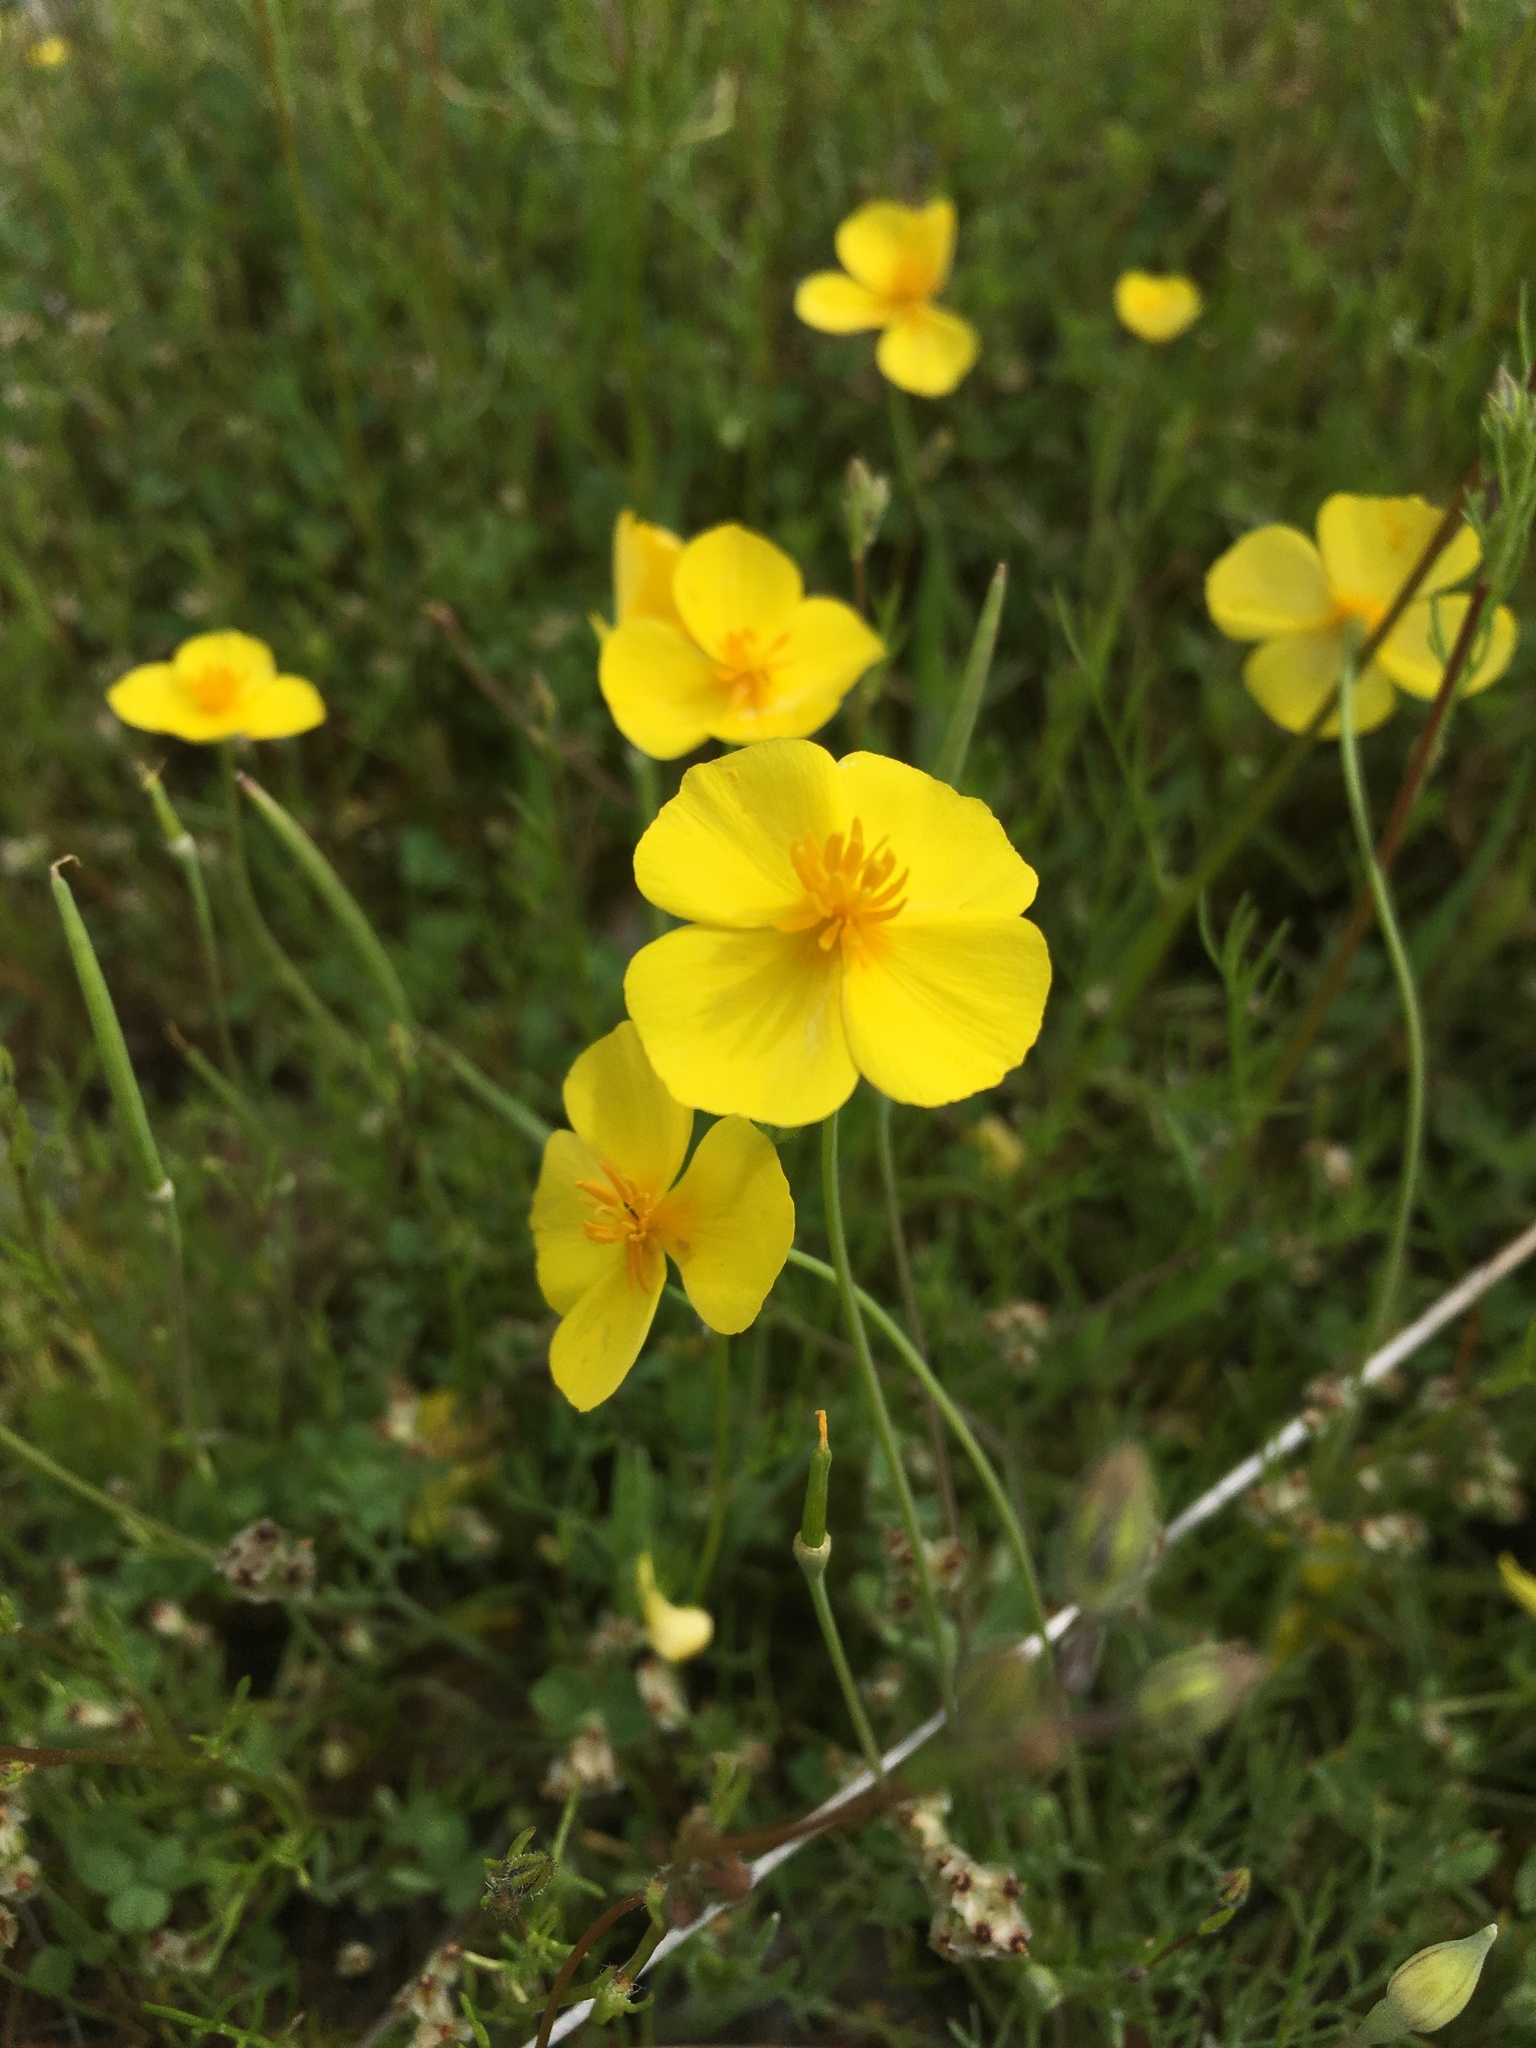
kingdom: Plantae
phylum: Tracheophyta
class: Magnoliopsida
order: Ranunculales
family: Papaveraceae
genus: Eschscholzia
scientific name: Eschscholzia lobbii
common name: Frying-pans
